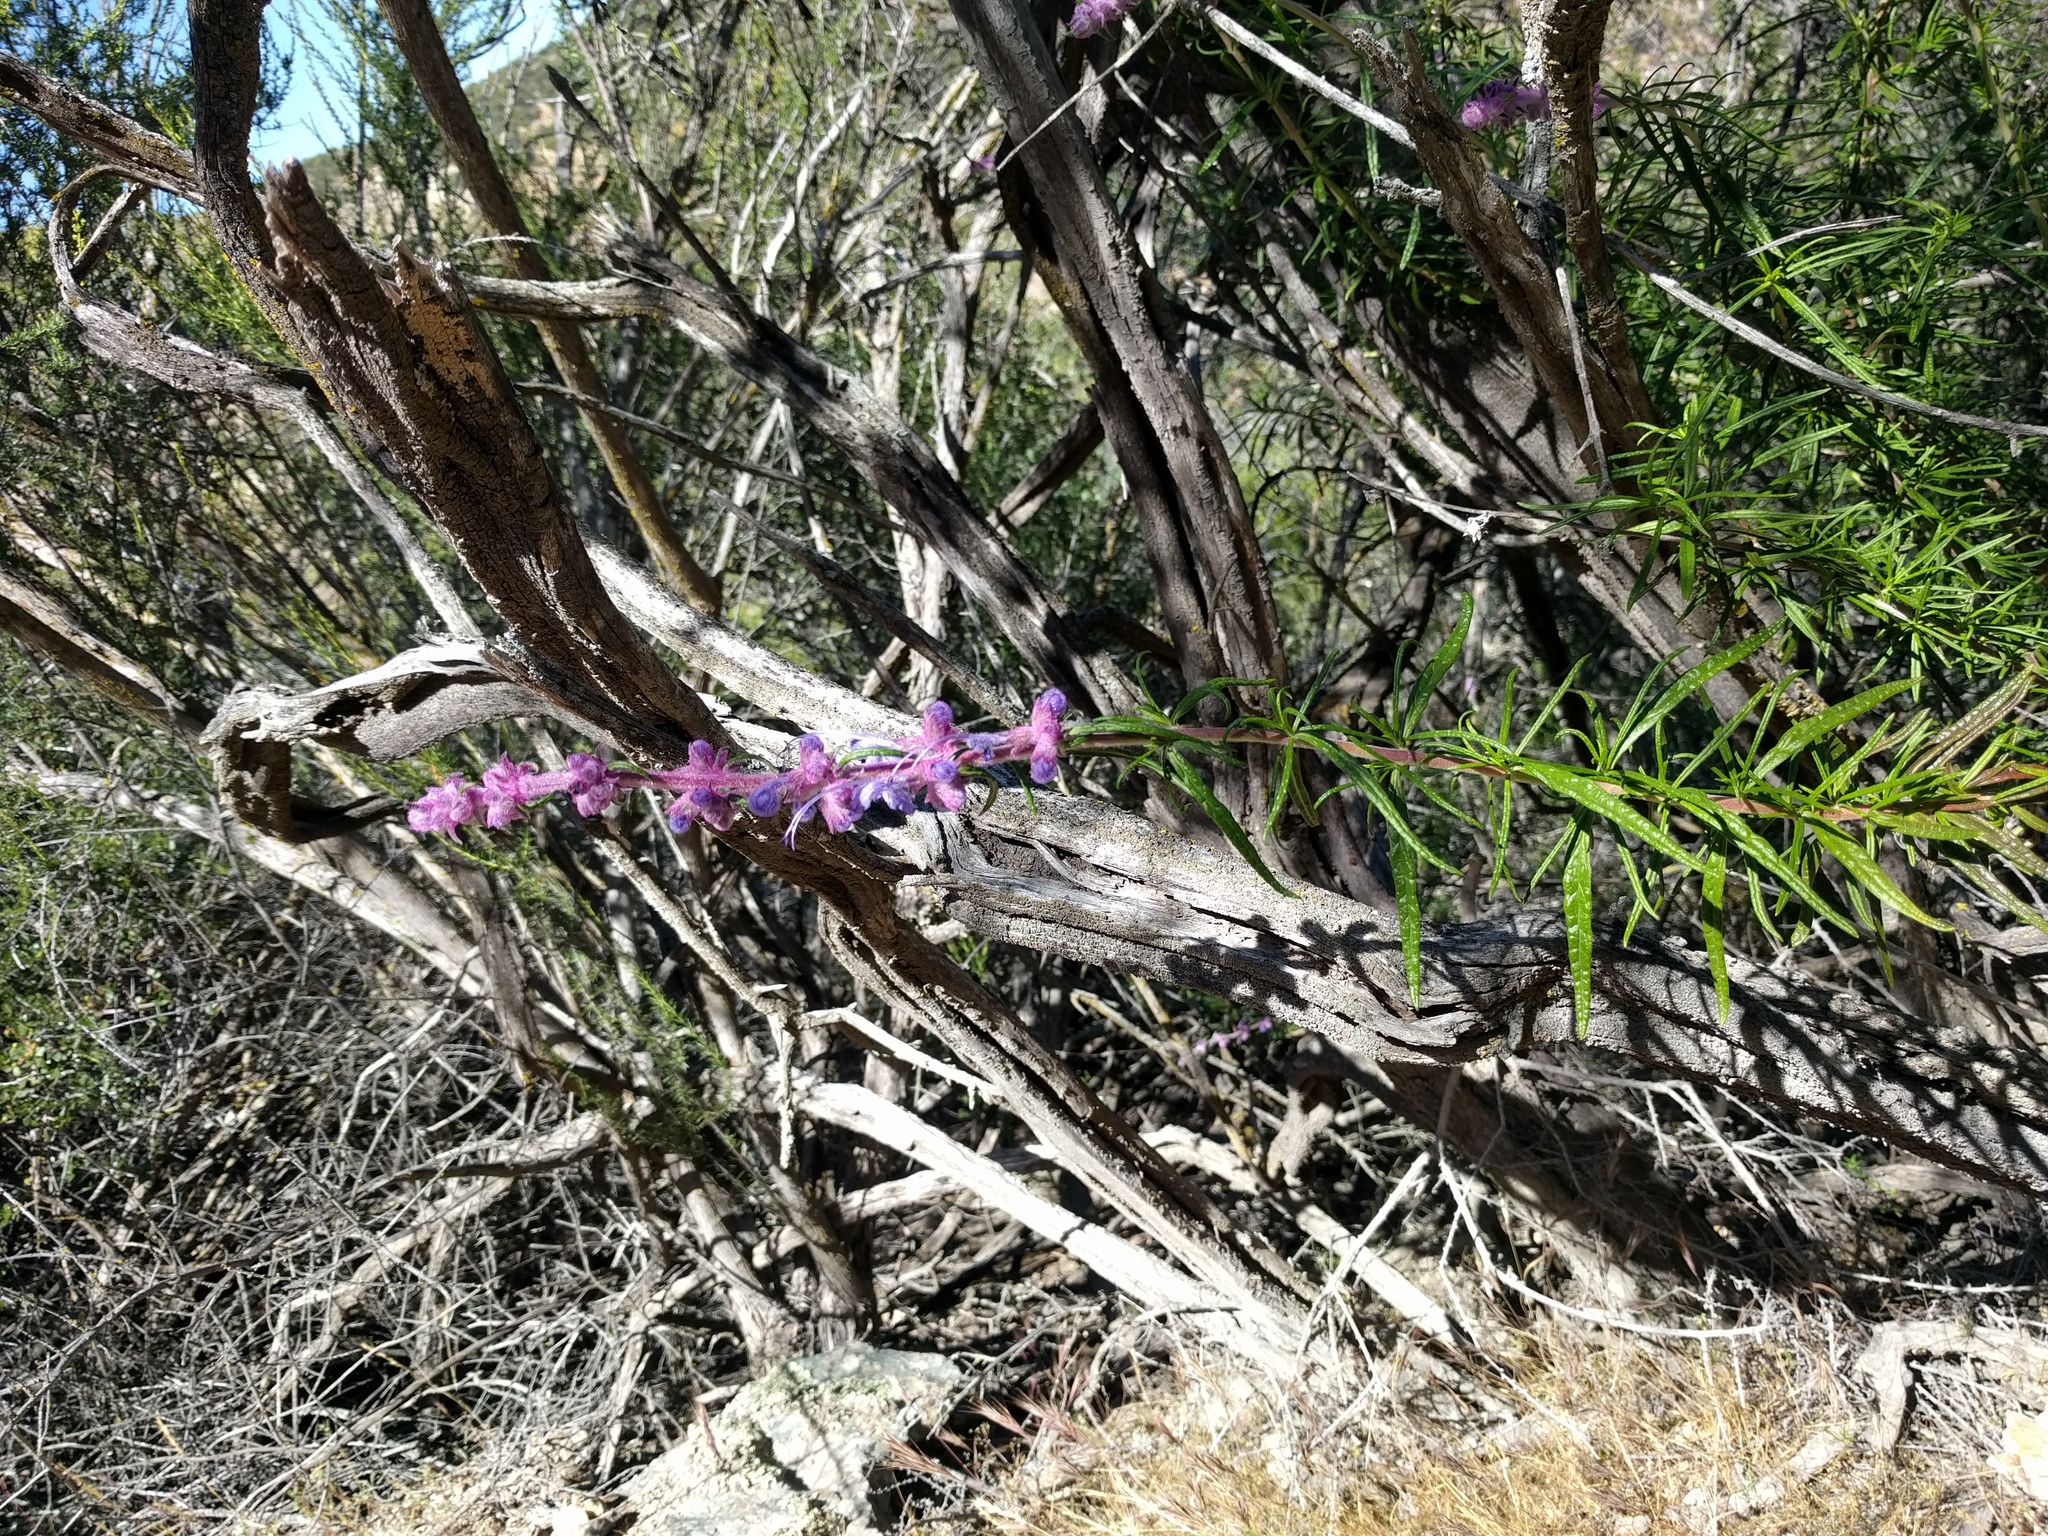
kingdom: Plantae
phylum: Tracheophyta
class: Magnoliopsida
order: Lamiales
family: Lamiaceae
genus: Trichostema
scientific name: Trichostema lanatum
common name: Woolly bluecurls
